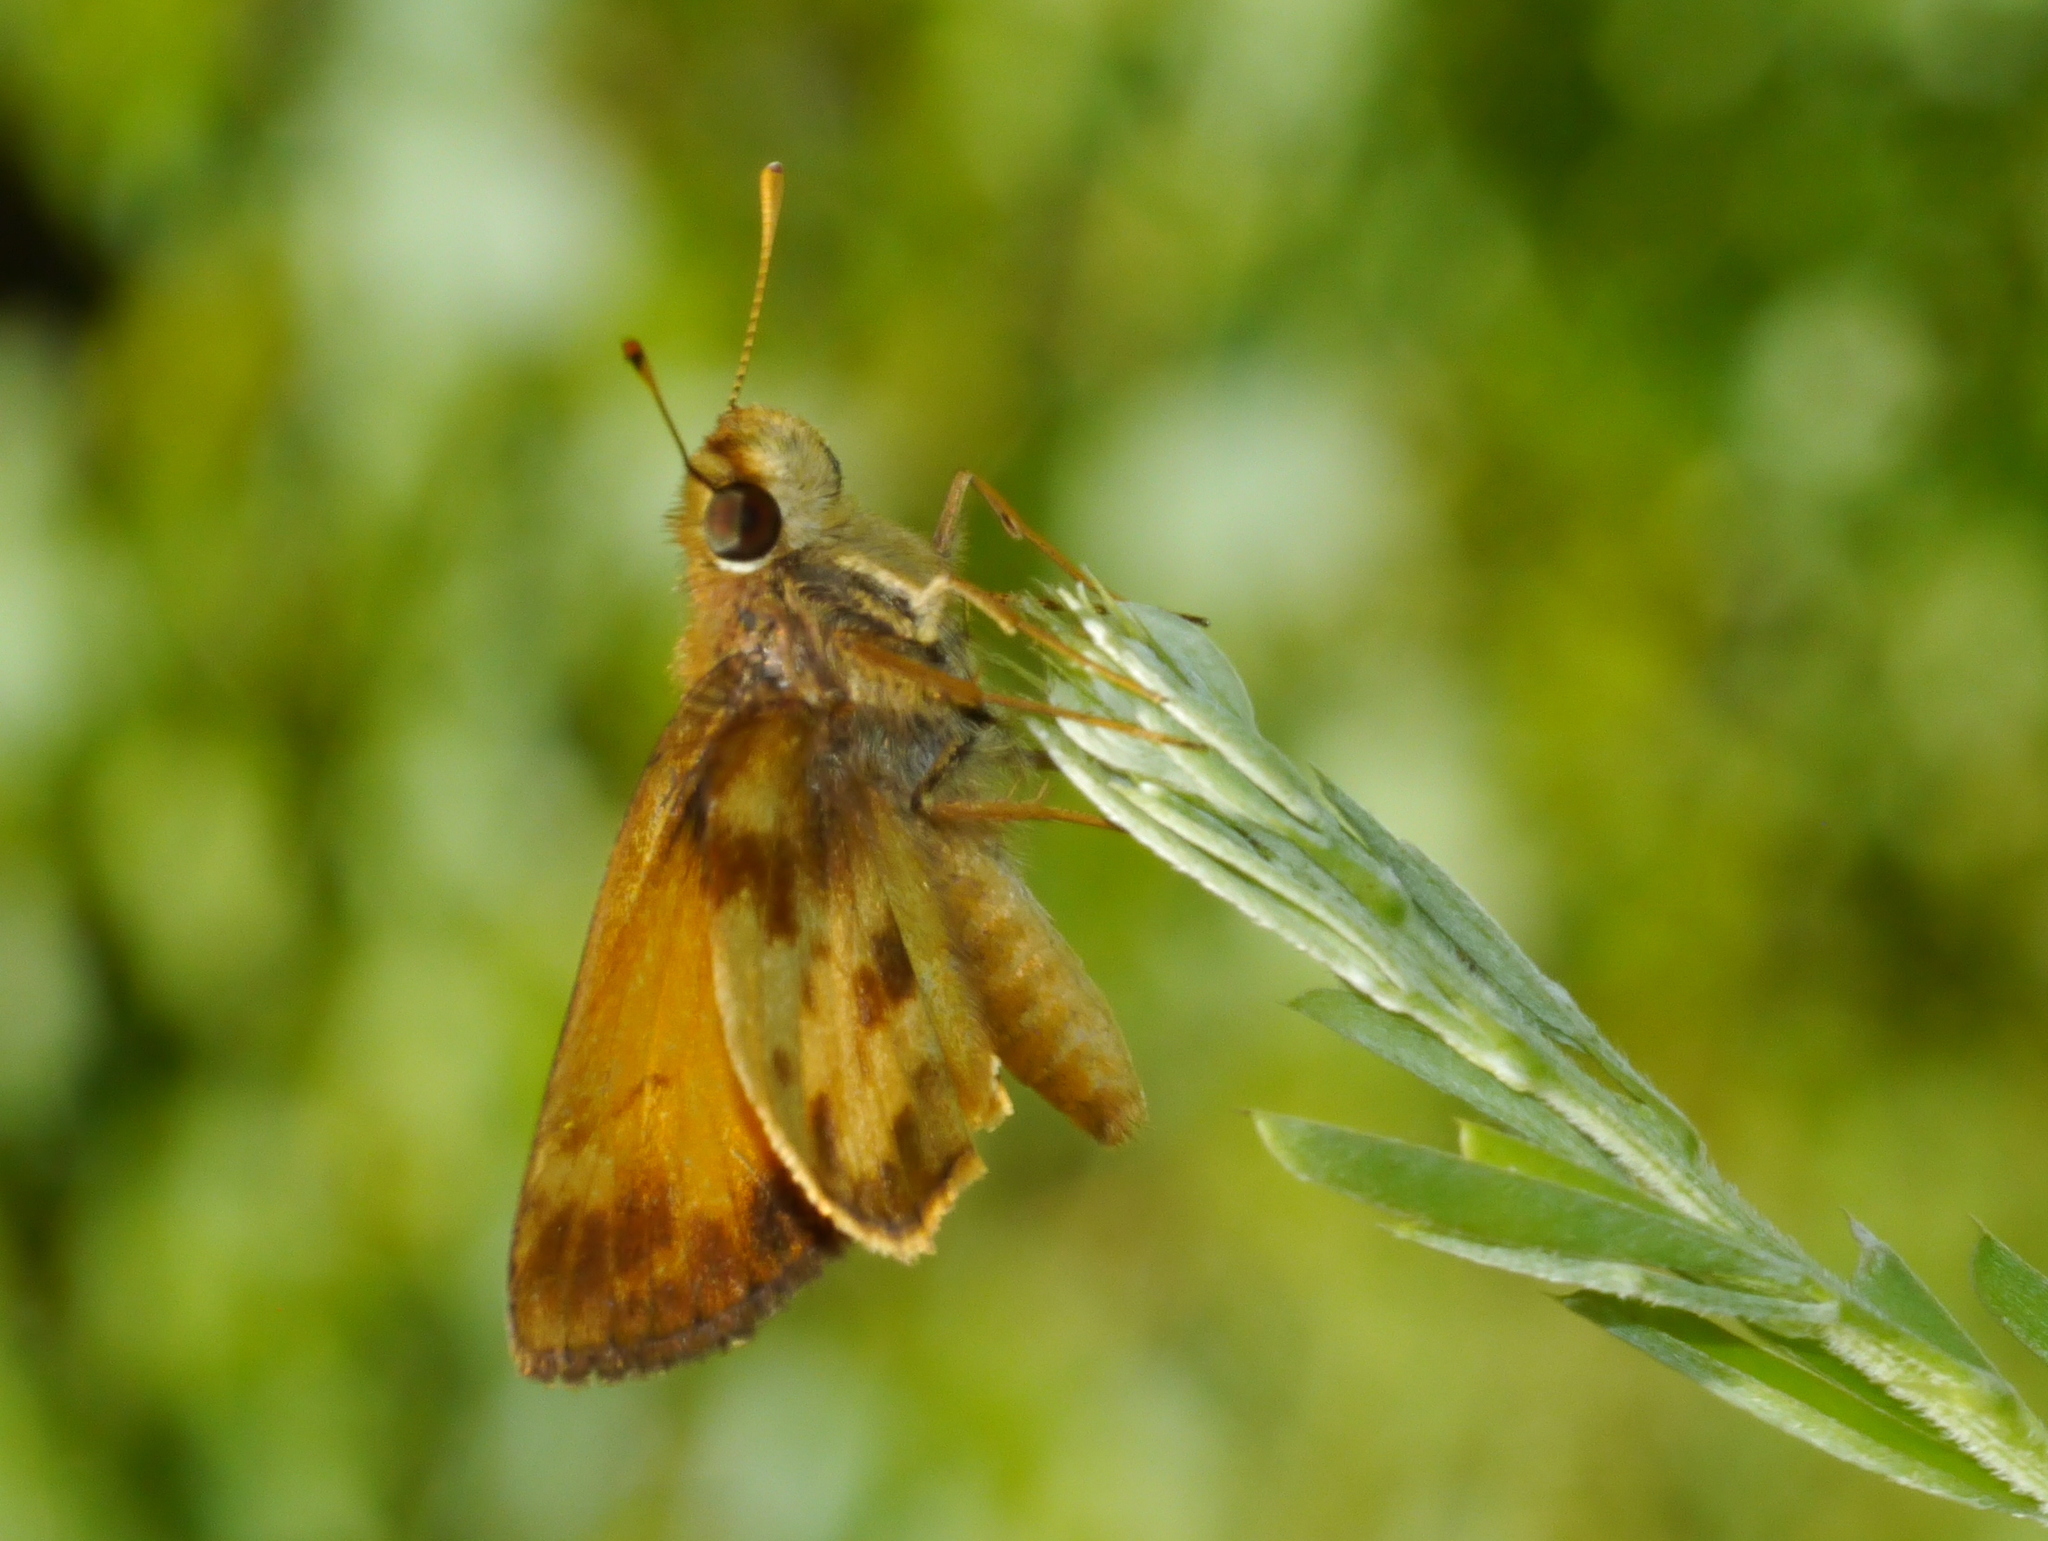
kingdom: Animalia
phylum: Arthropoda
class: Insecta
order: Lepidoptera
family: Hesperiidae
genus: Lon
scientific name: Lon zabulon
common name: Zabulon skipper
